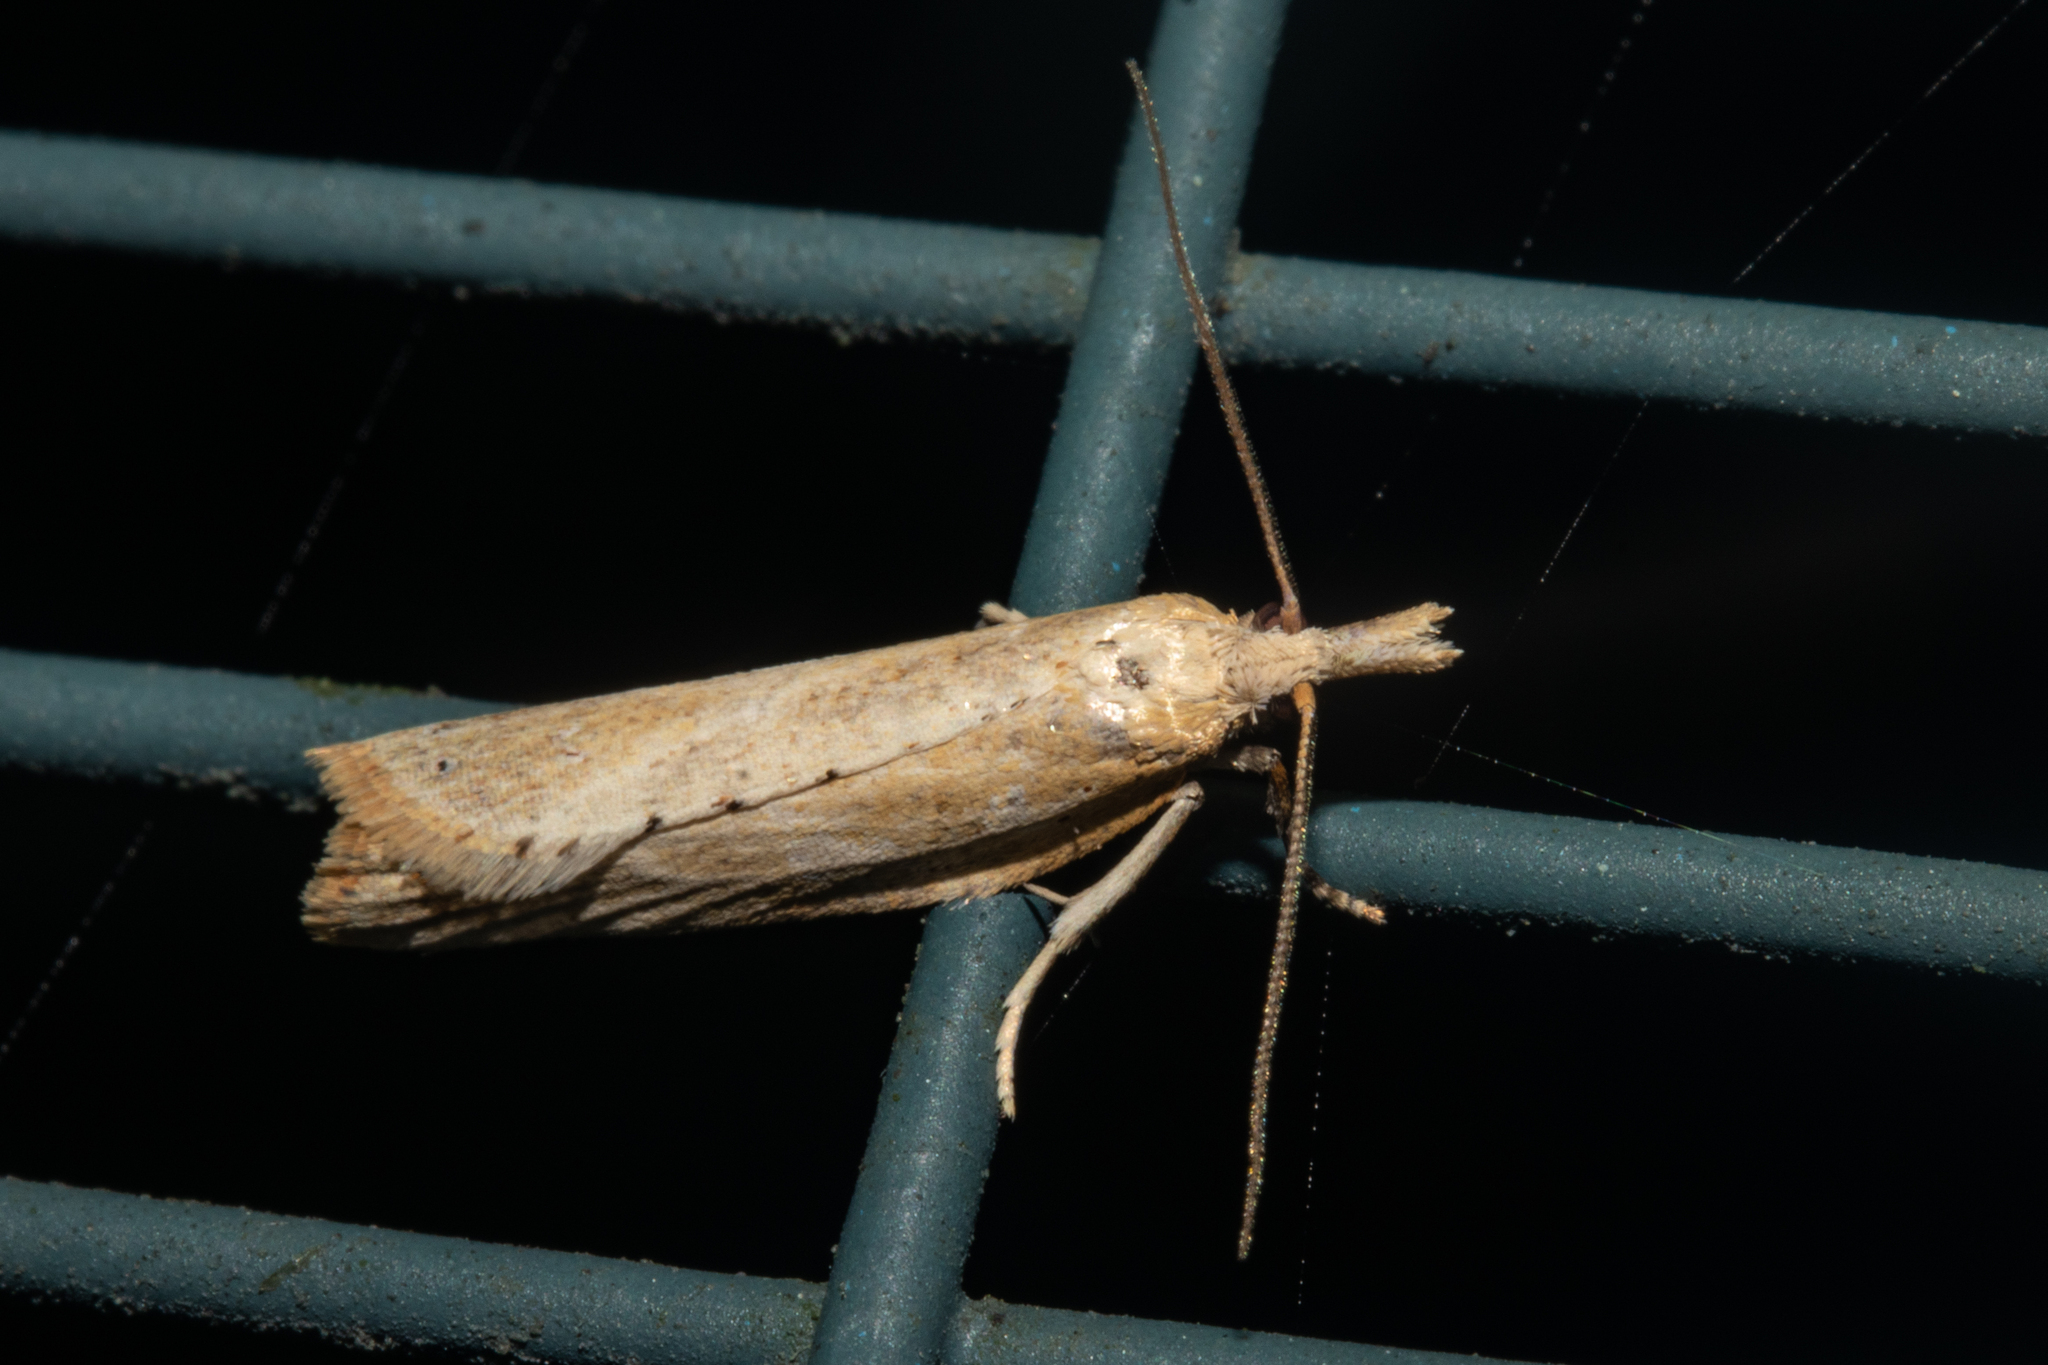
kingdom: Animalia
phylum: Arthropoda
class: Insecta
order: Lepidoptera
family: Tortricidae
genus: Apoctena
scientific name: Apoctena persecta
